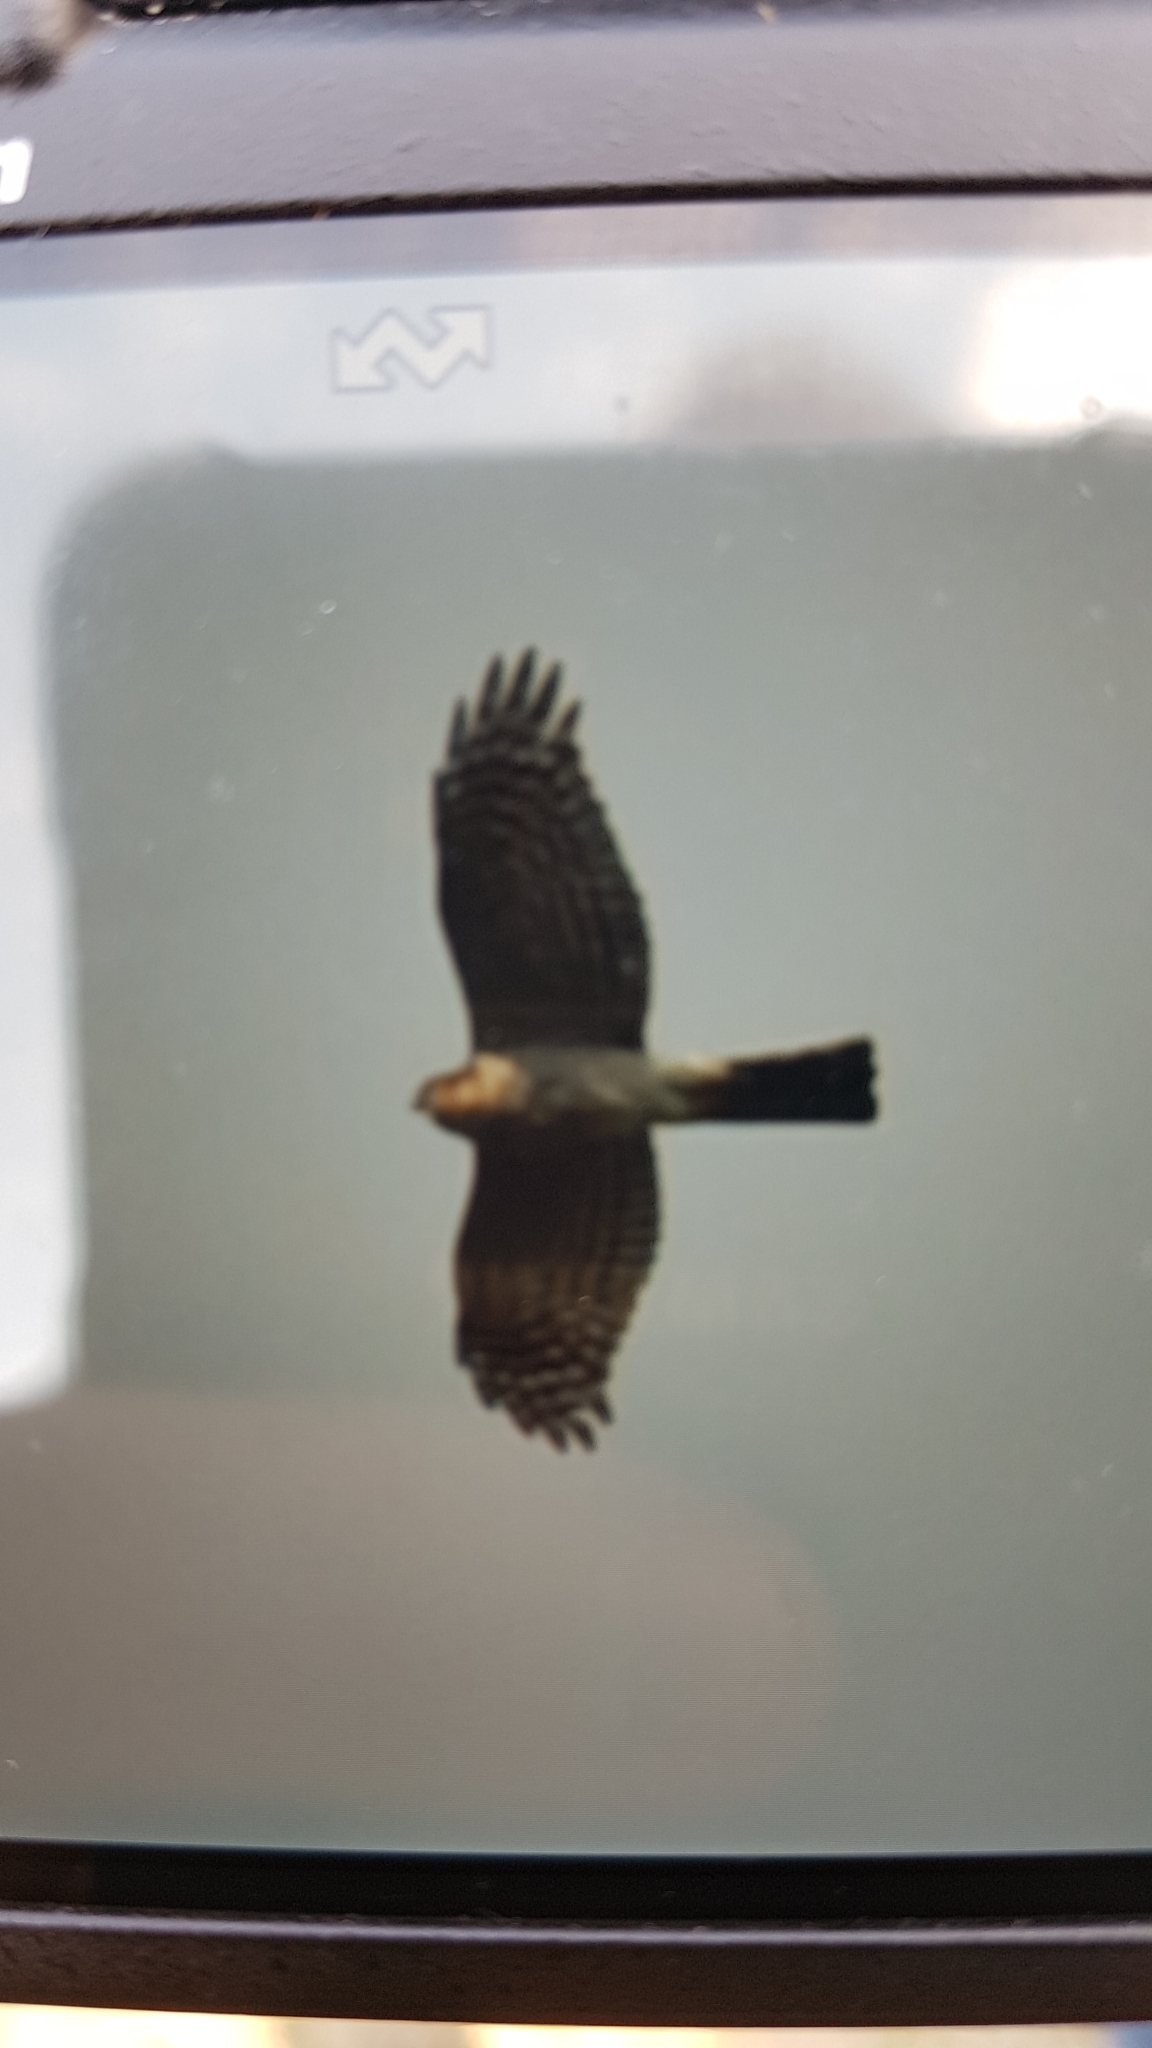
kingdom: Animalia
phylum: Chordata
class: Aves
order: Accipitriformes
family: Accipitridae
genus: Accipiter
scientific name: Accipiter nisus
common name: Eurasian sparrowhawk
